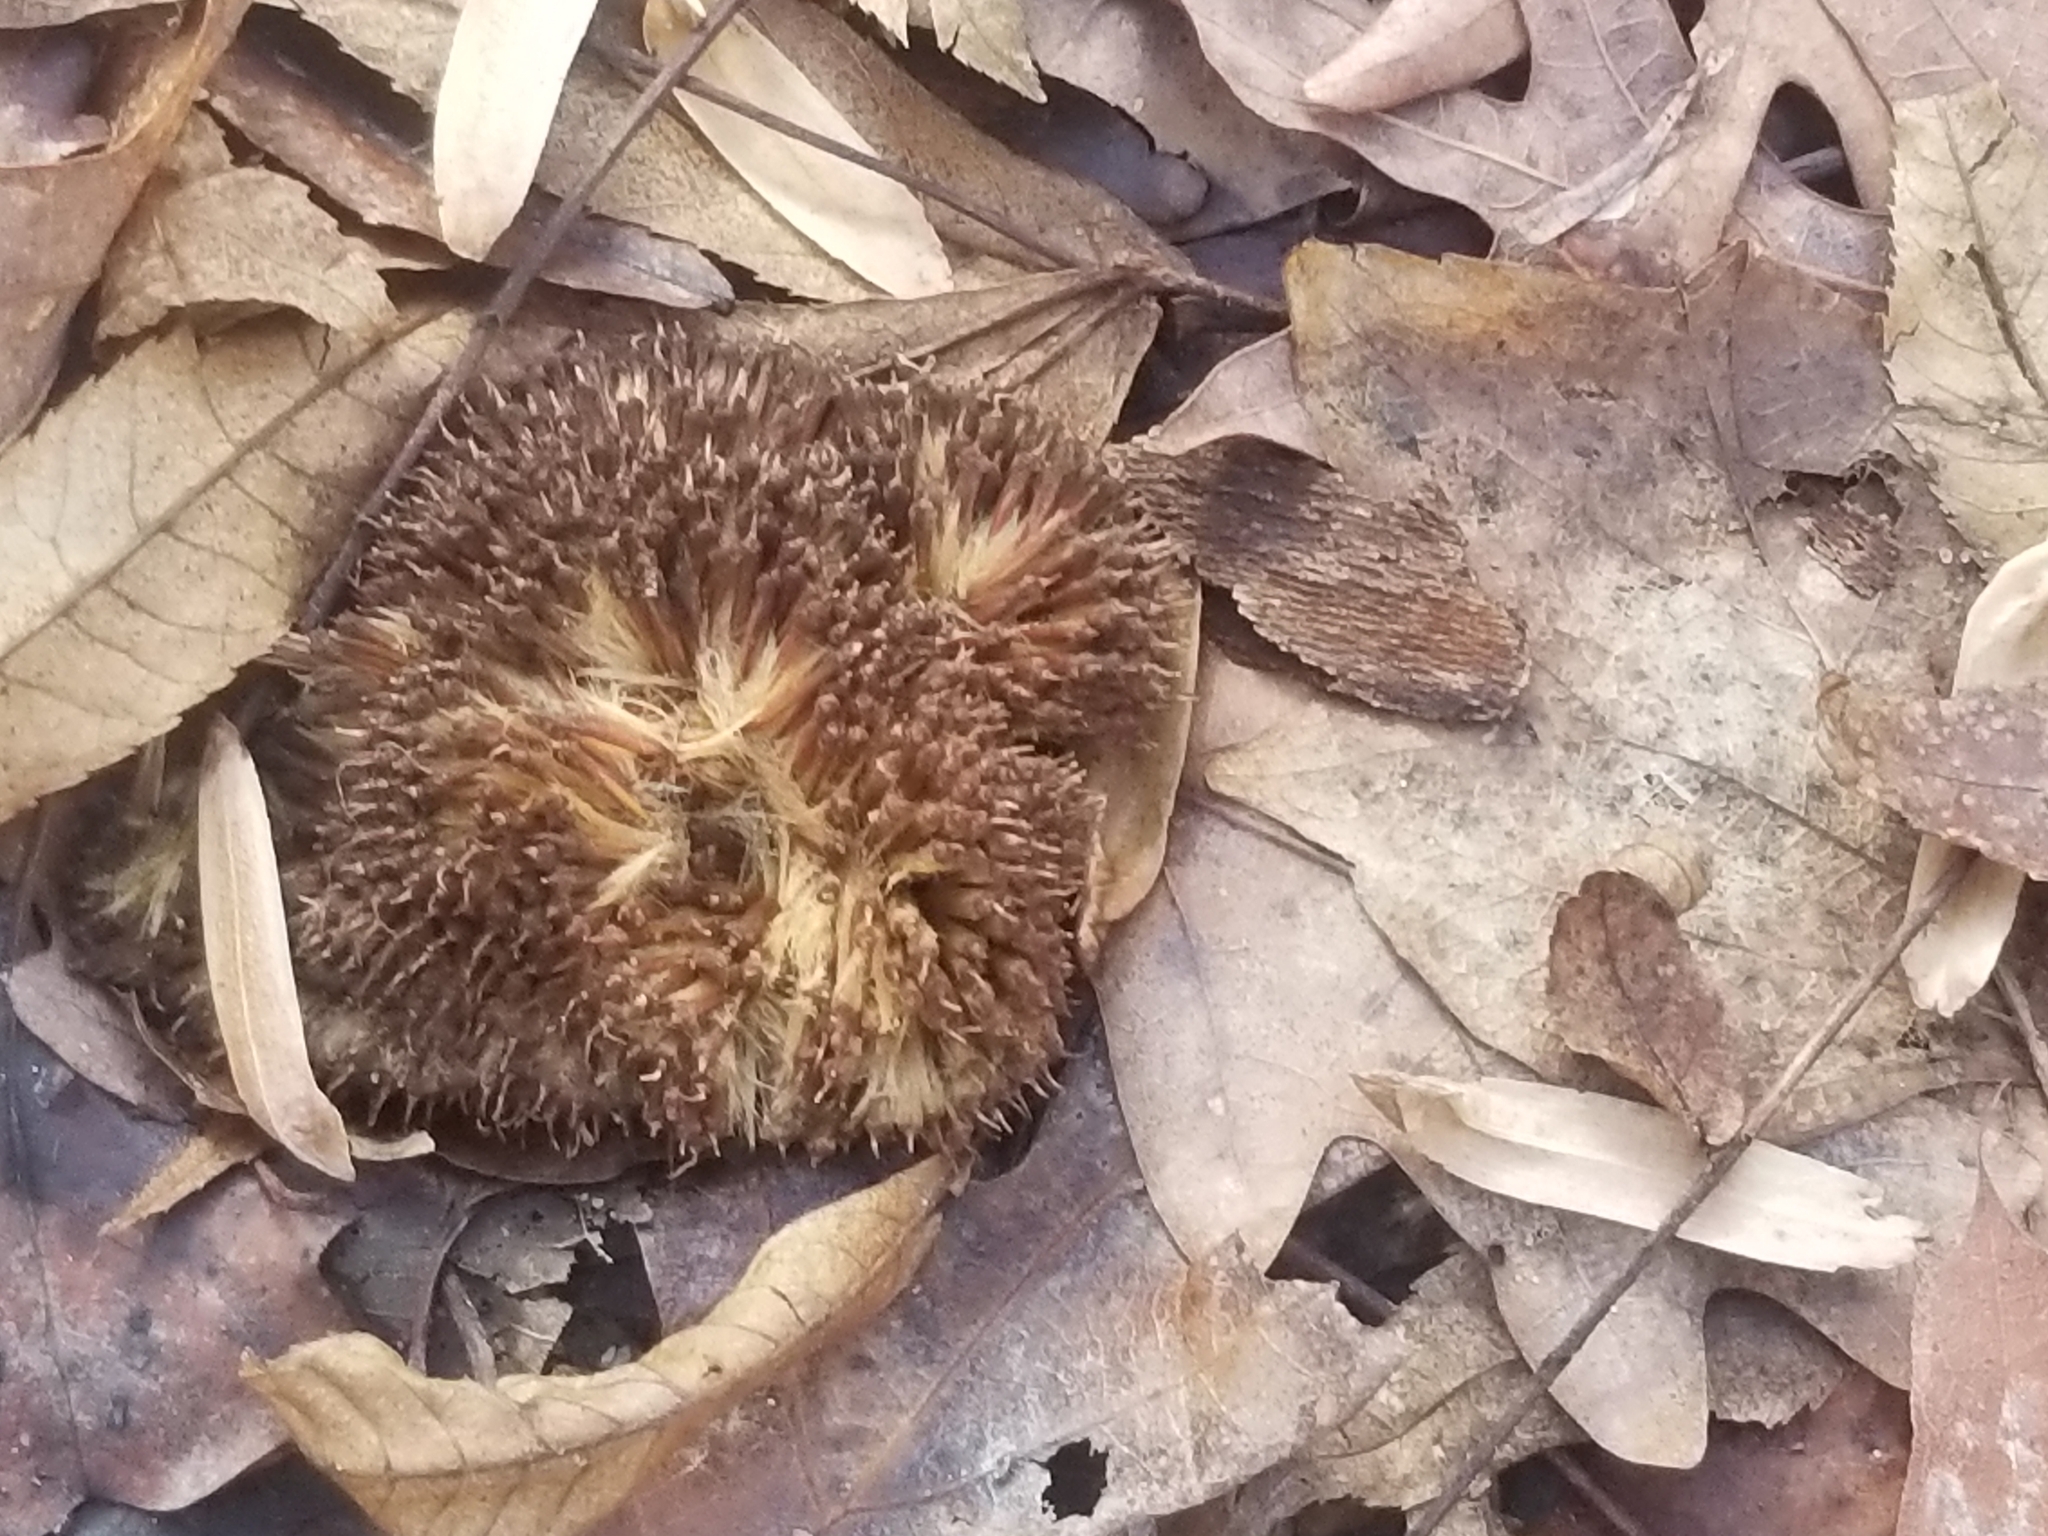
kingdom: Plantae
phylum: Tracheophyta
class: Magnoliopsida
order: Proteales
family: Platanaceae
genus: Platanus
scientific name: Platanus occidentalis
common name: American sycamore
